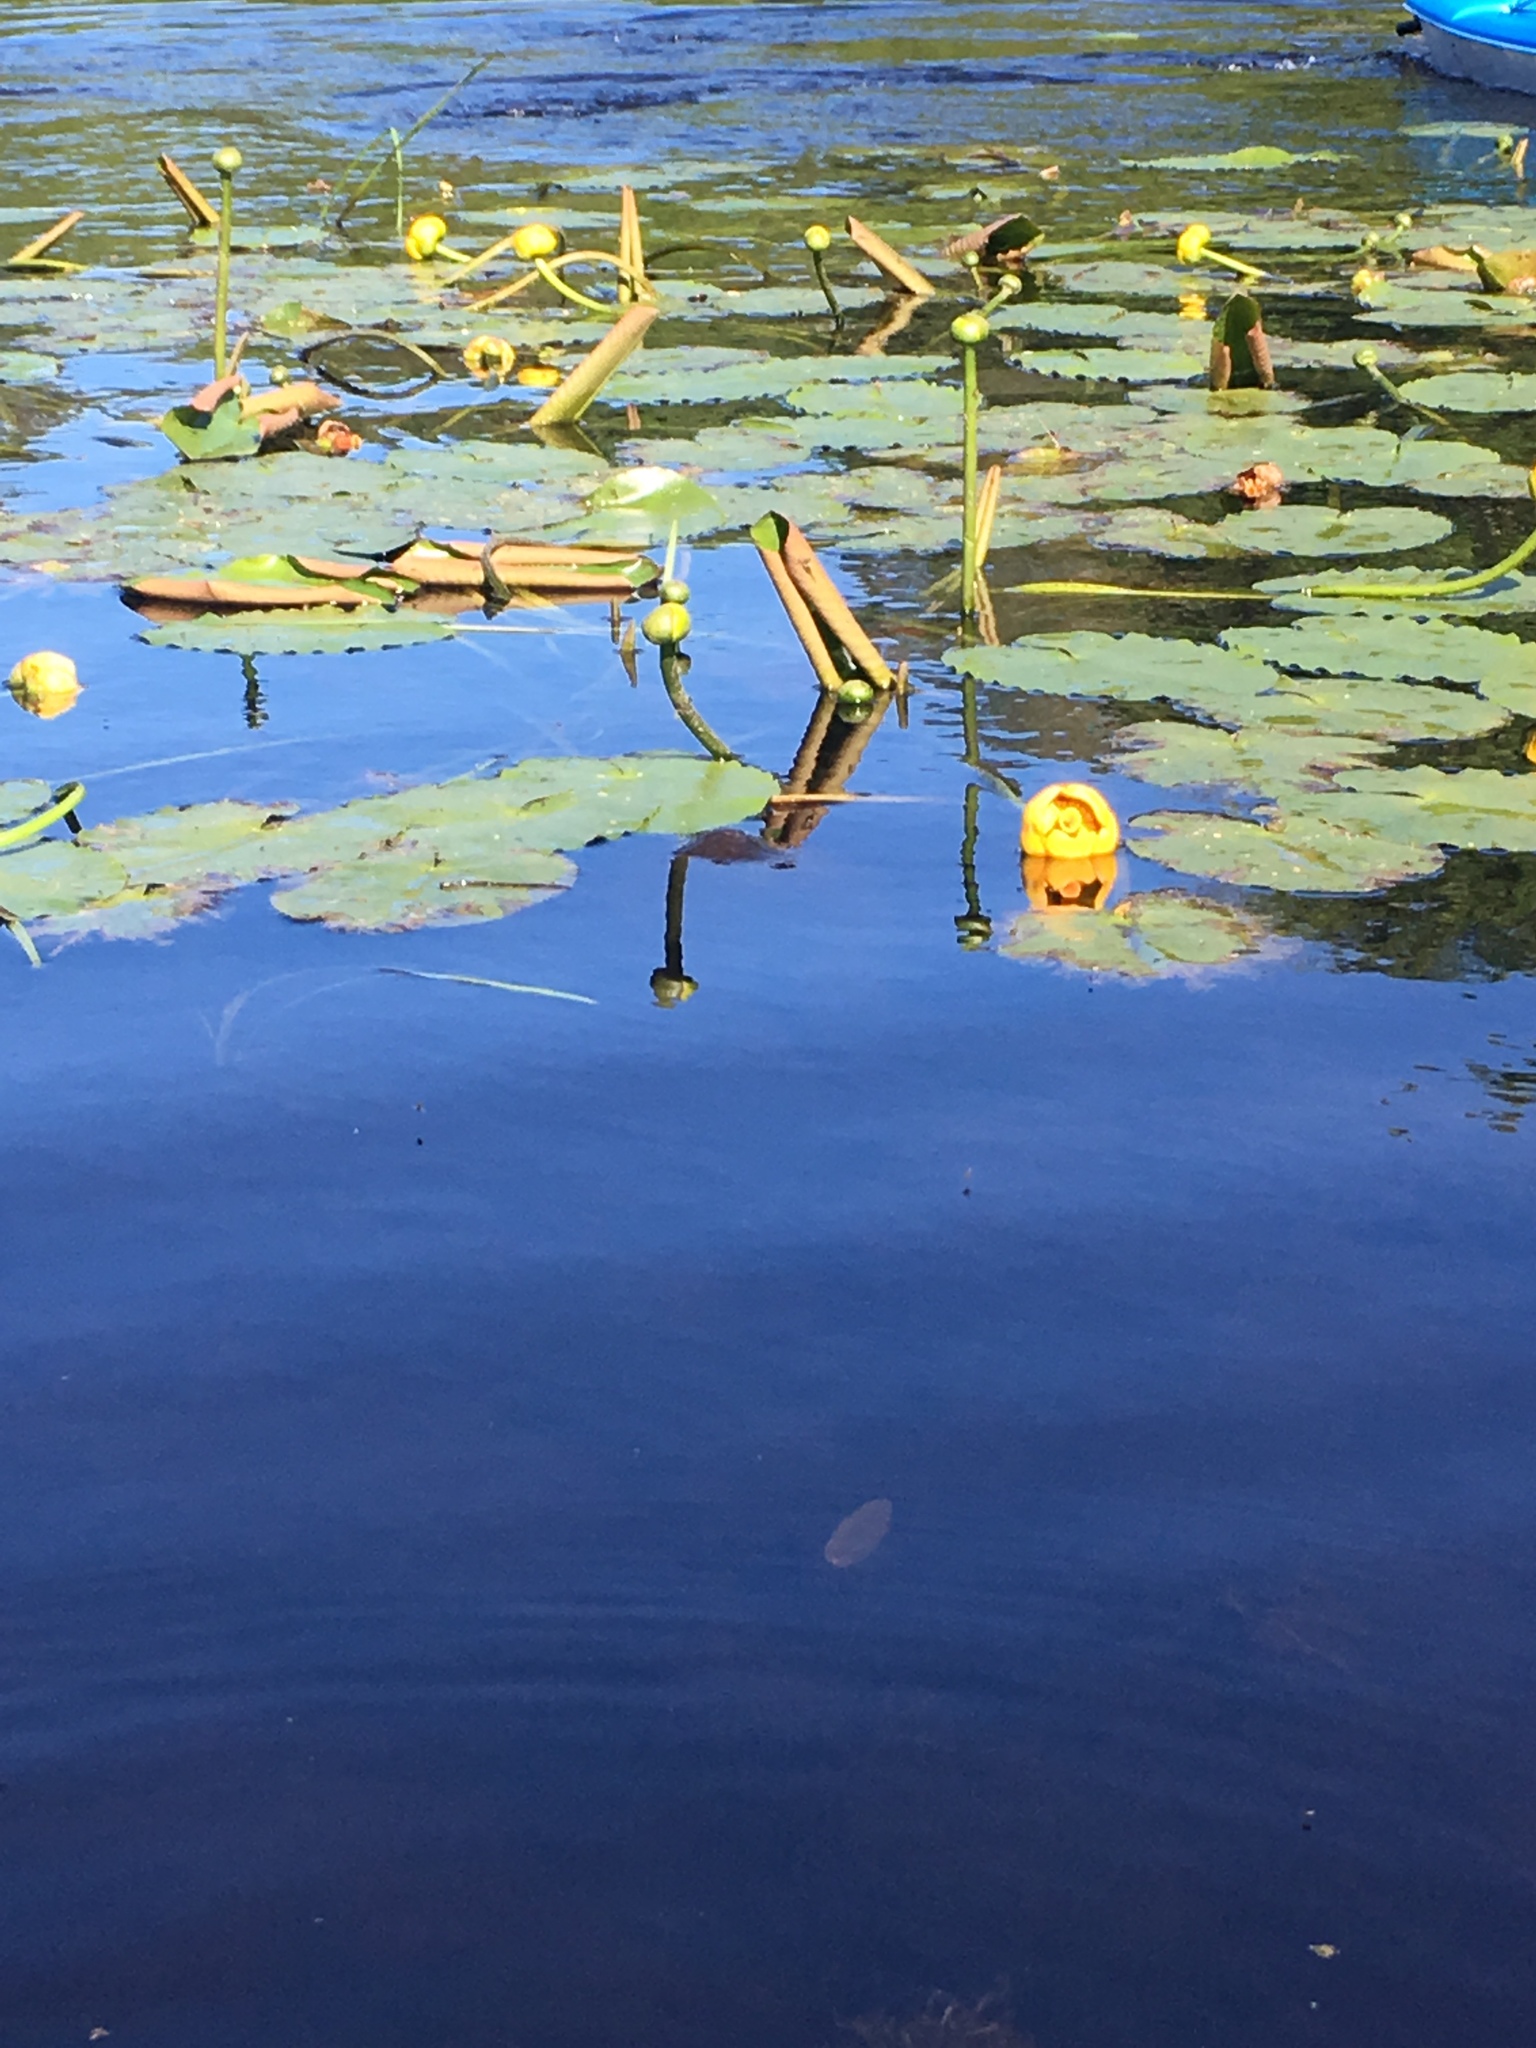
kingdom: Plantae
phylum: Tracheophyta
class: Magnoliopsida
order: Nymphaeales
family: Nymphaeaceae
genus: Nuphar
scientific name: Nuphar variegata
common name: Beaver-root
